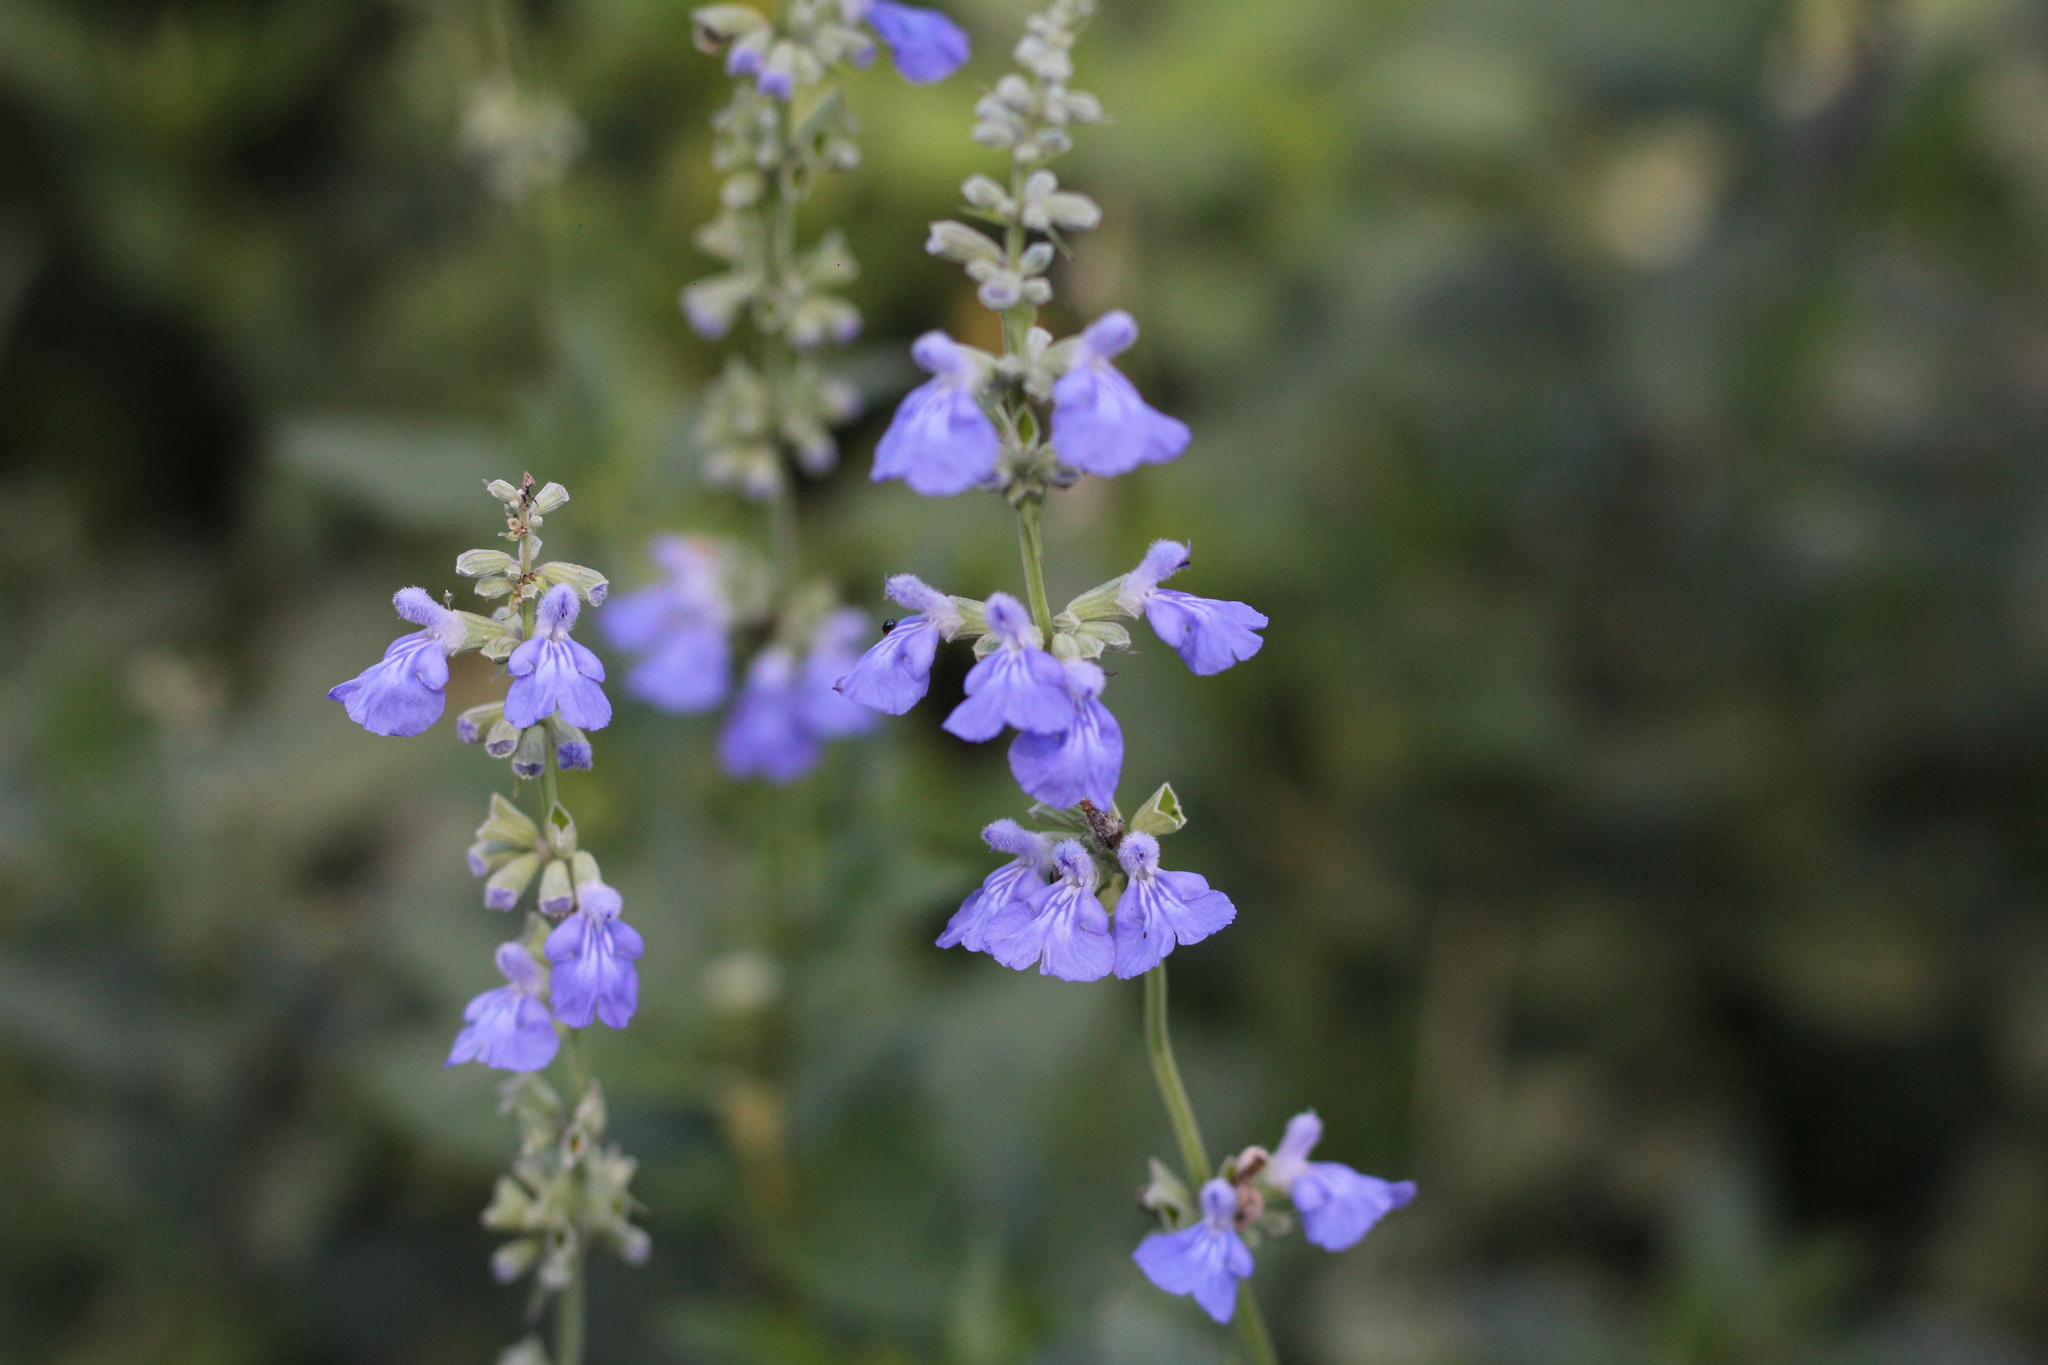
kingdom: Plantae
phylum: Tracheophyta
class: Magnoliopsida
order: Lamiales
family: Lamiaceae
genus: Salvia
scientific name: Salvia pallida
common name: Pale sage
